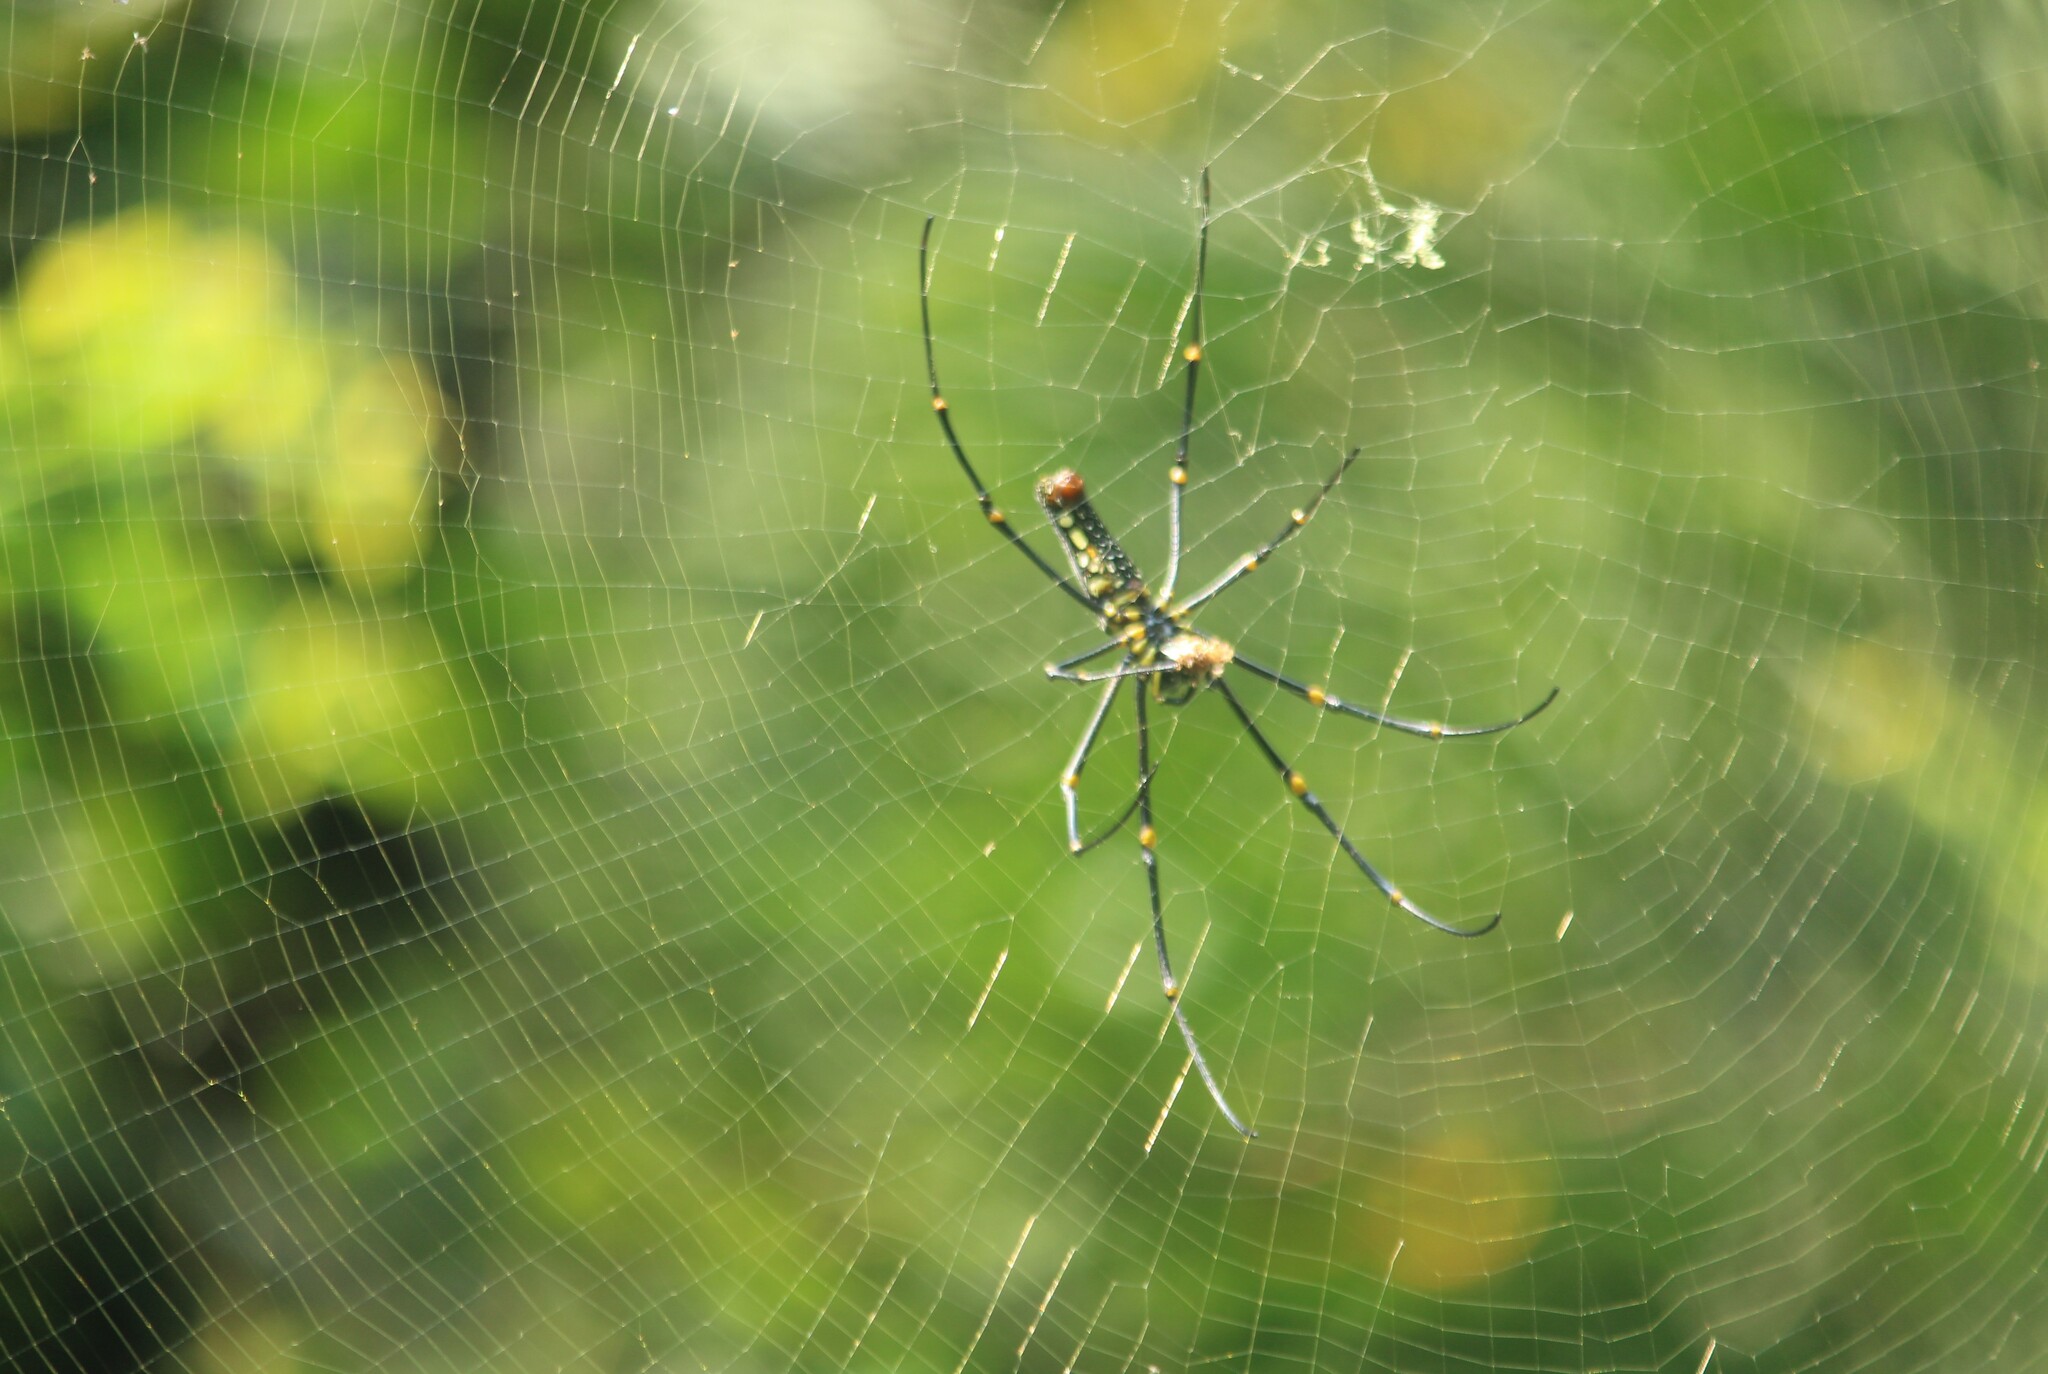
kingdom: Animalia
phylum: Arthropoda
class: Arachnida
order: Araneae
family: Araneidae
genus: Nephila
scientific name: Nephila pilipes
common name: Giant golden orb weaver
